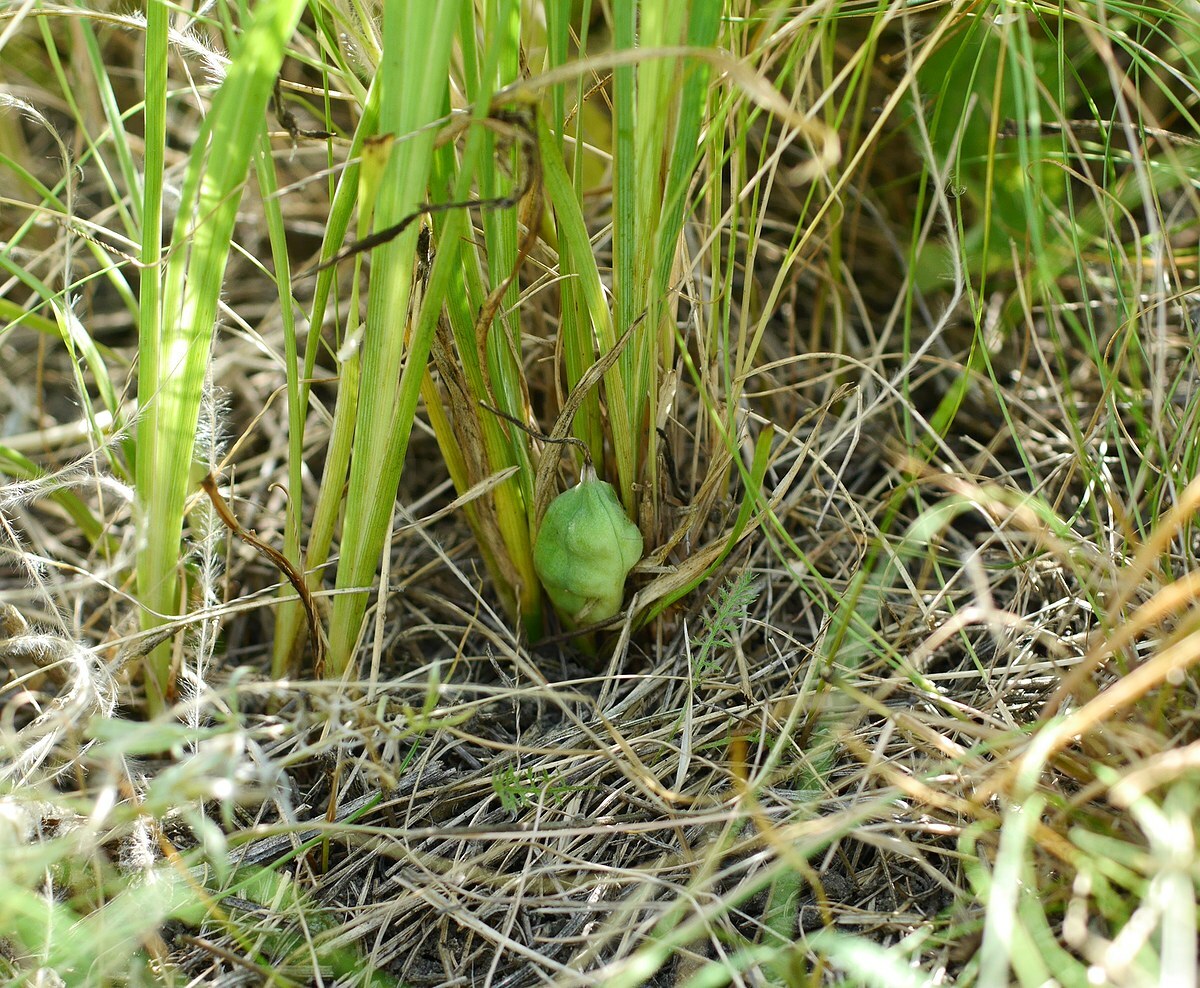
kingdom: Plantae
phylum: Tracheophyta
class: Liliopsida
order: Asparagales
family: Iridaceae
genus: Iris
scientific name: Iris pontica
